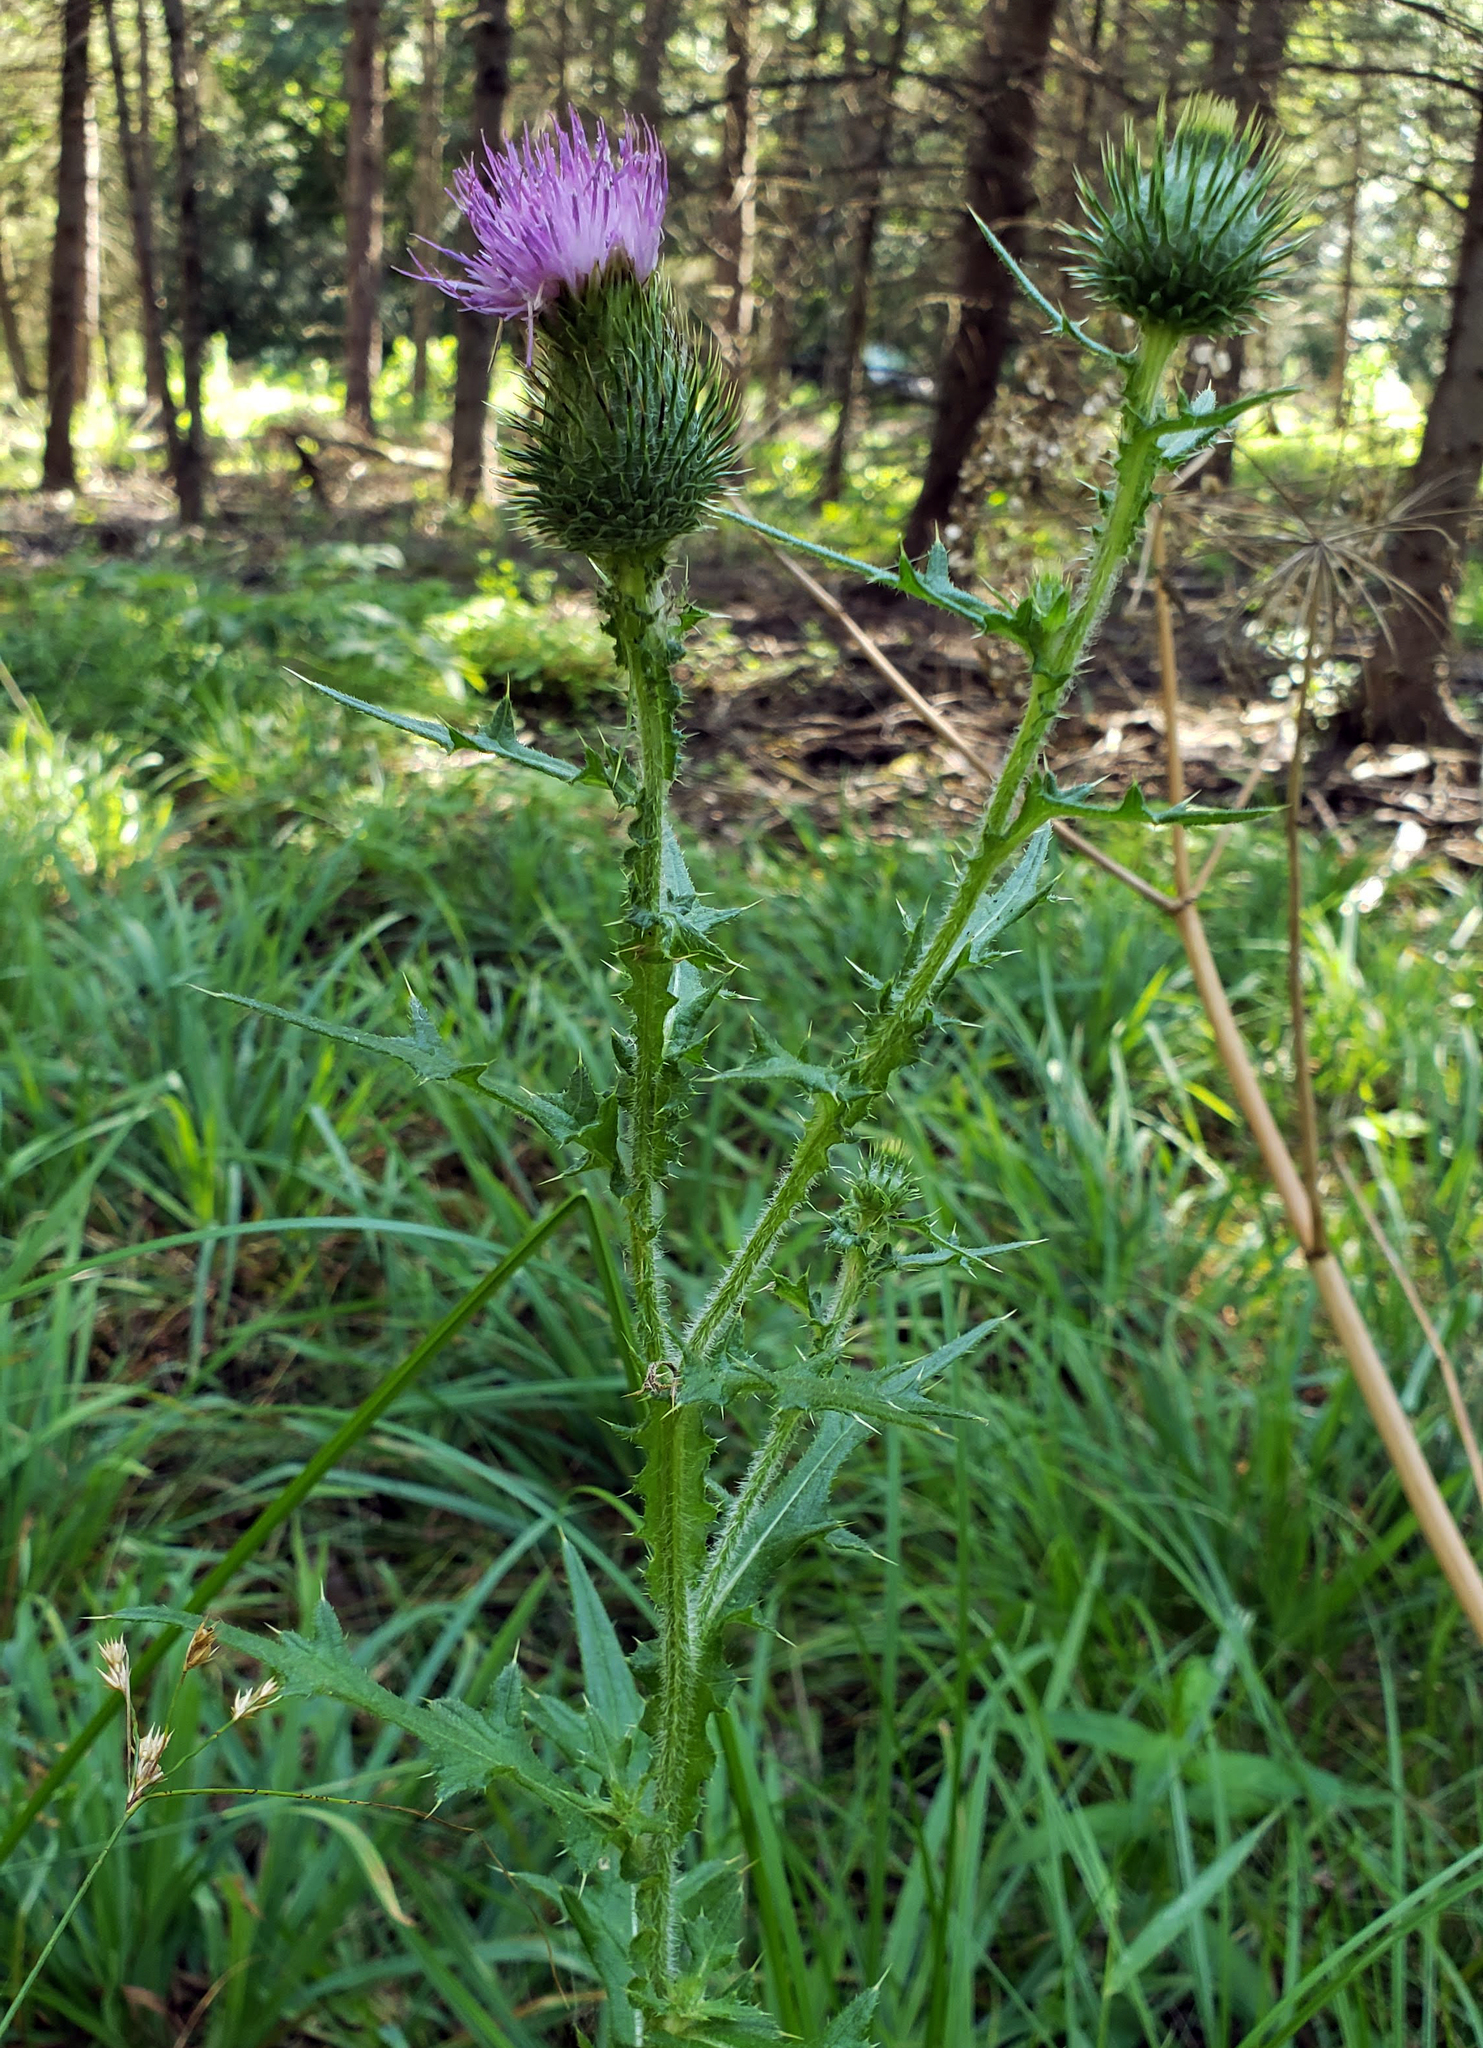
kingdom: Plantae
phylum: Tracheophyta
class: Magnoliopsida
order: Asterales
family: Asteraceae
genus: Cirsium
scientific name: Cirsium vulgare
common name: Bull thistle
